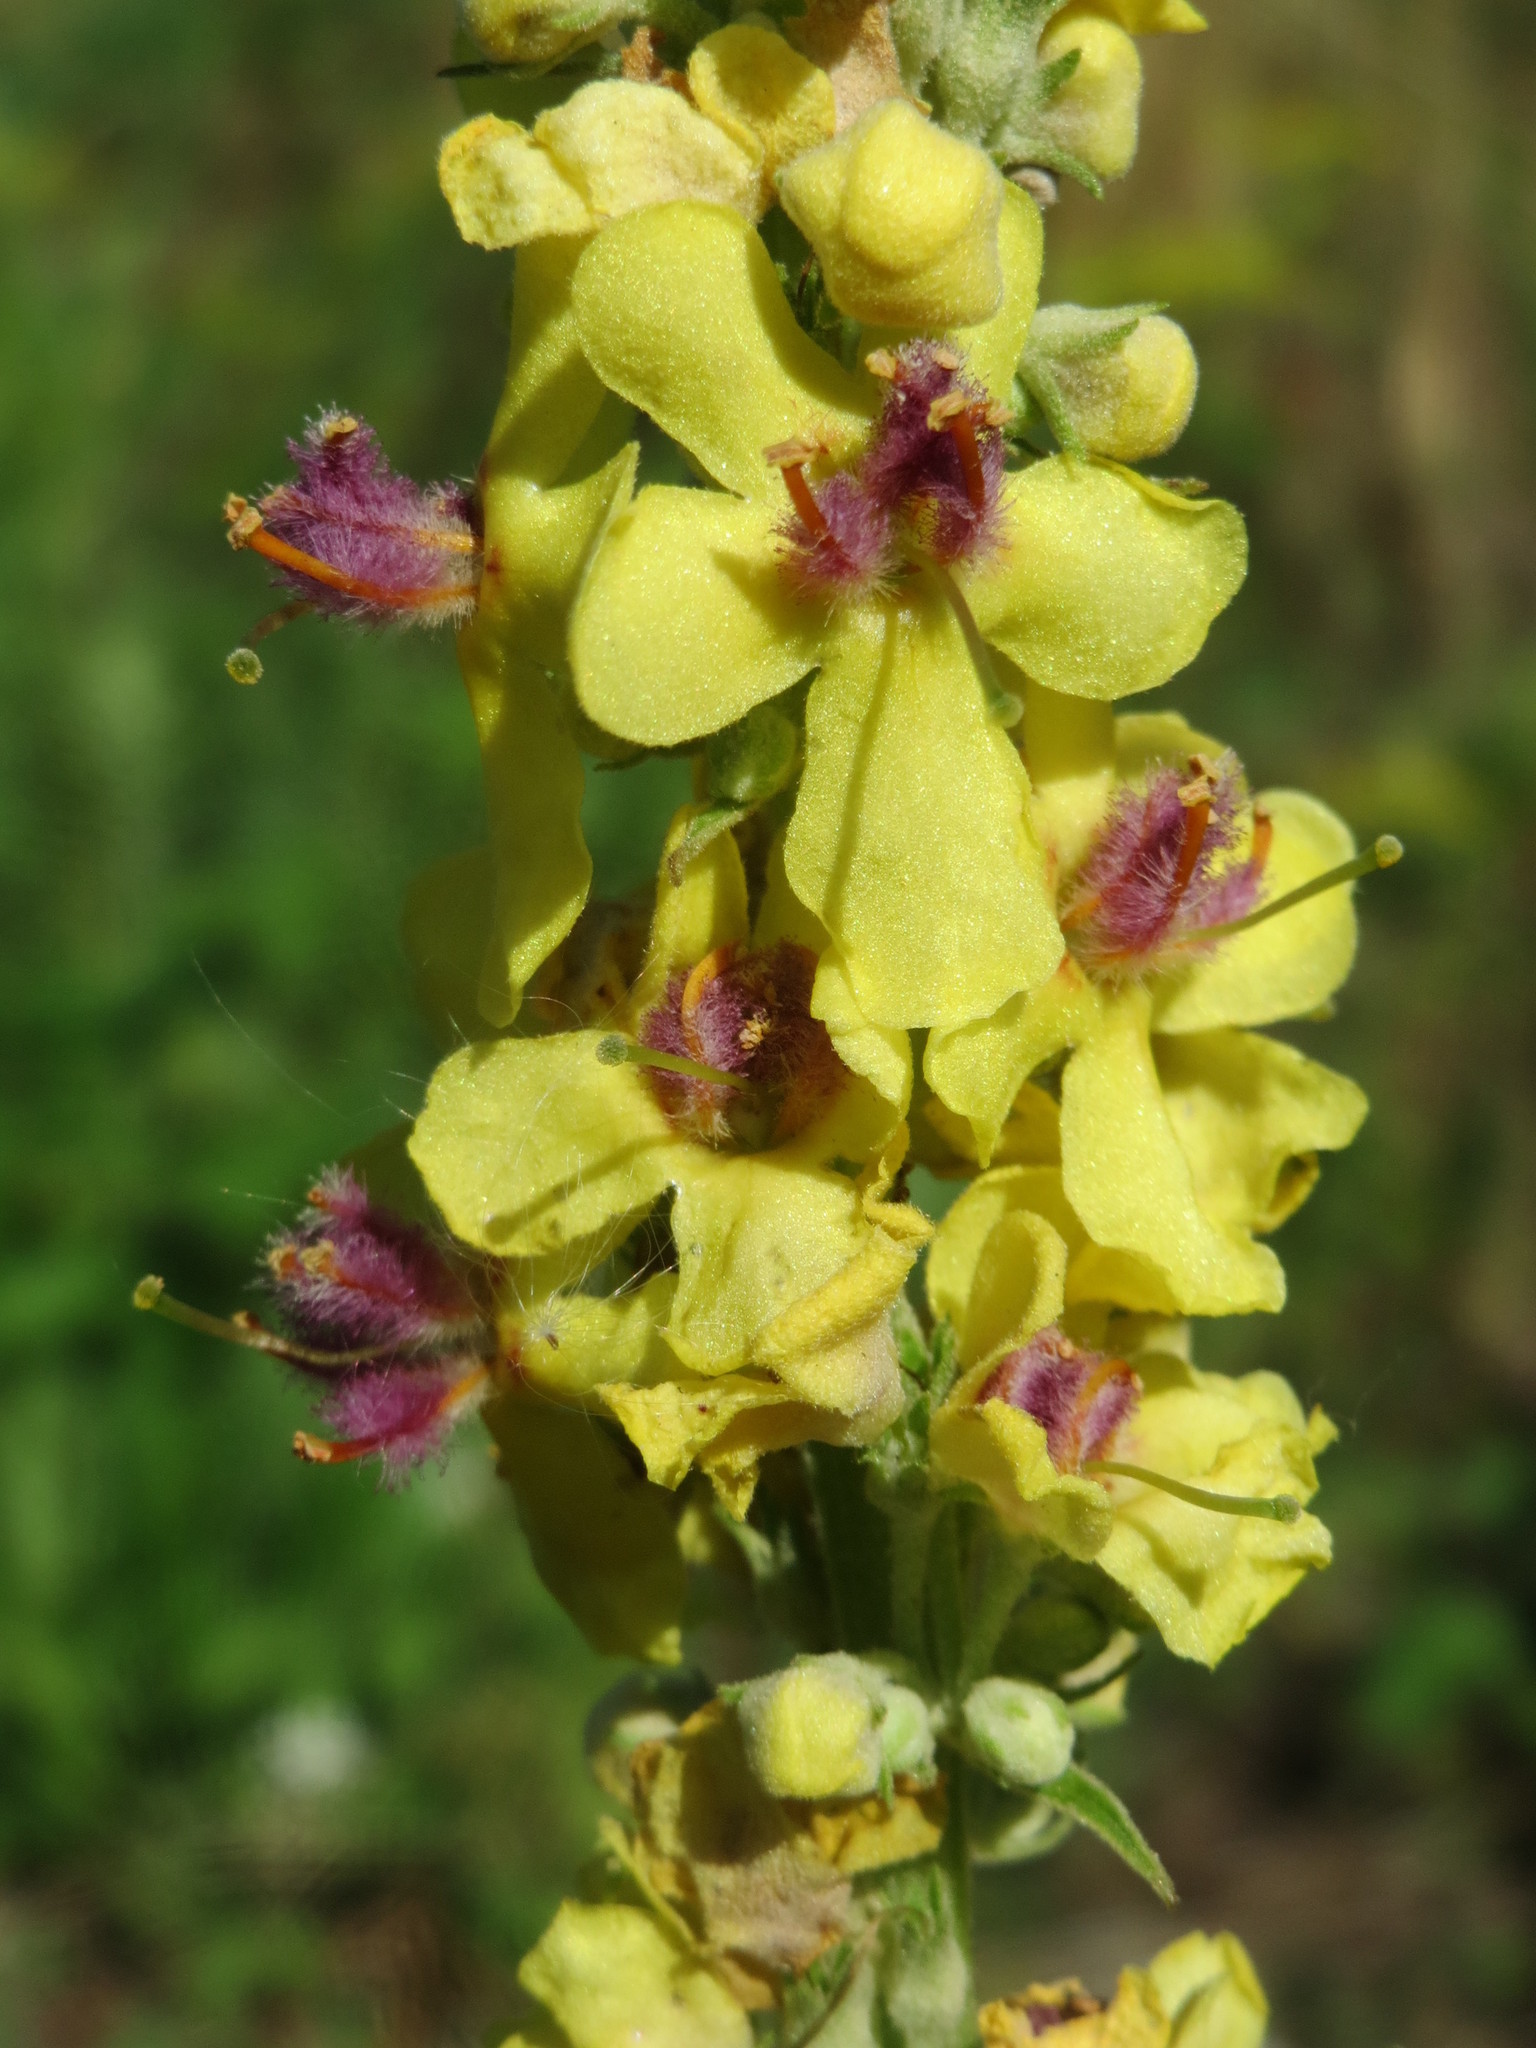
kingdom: Plantae
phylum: Tracheophyta
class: Magnoliopsida
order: Lamiales
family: Scrophulariaceae
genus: Verbascum
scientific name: Verbascum nigrum
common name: Dark mullein
